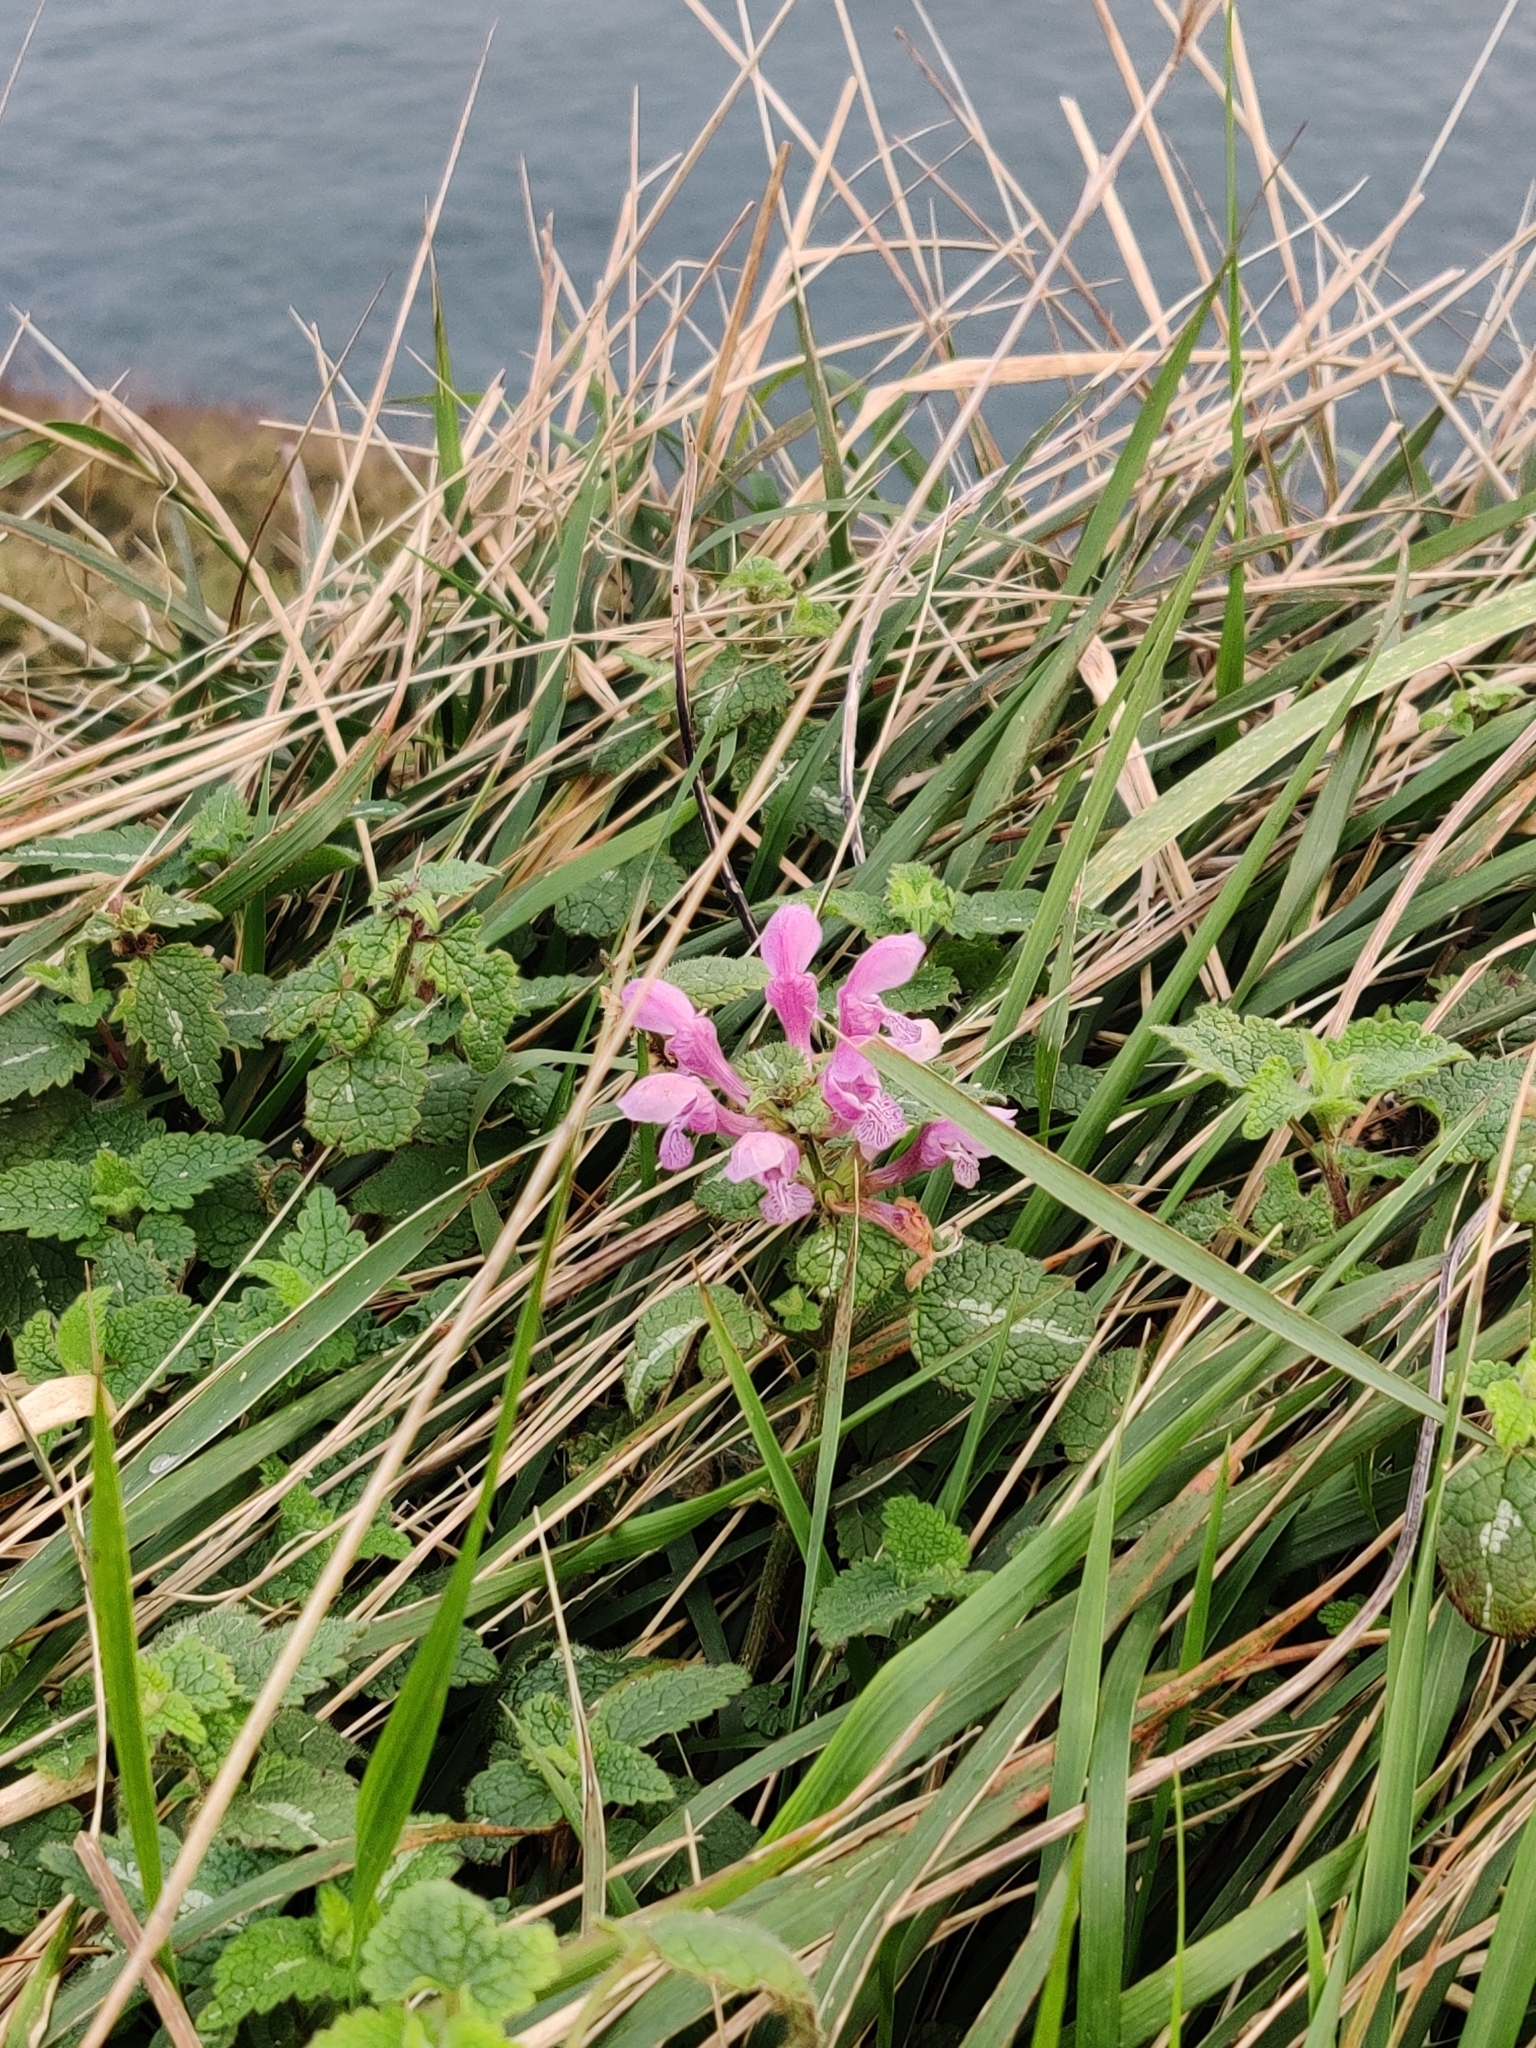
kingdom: Plantae
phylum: Tracheophyta
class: Magnoliopsida
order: Lamiales
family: Lamiaceae
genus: Lamium
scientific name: Lamium maculatum
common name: Spotted dead-nettle
